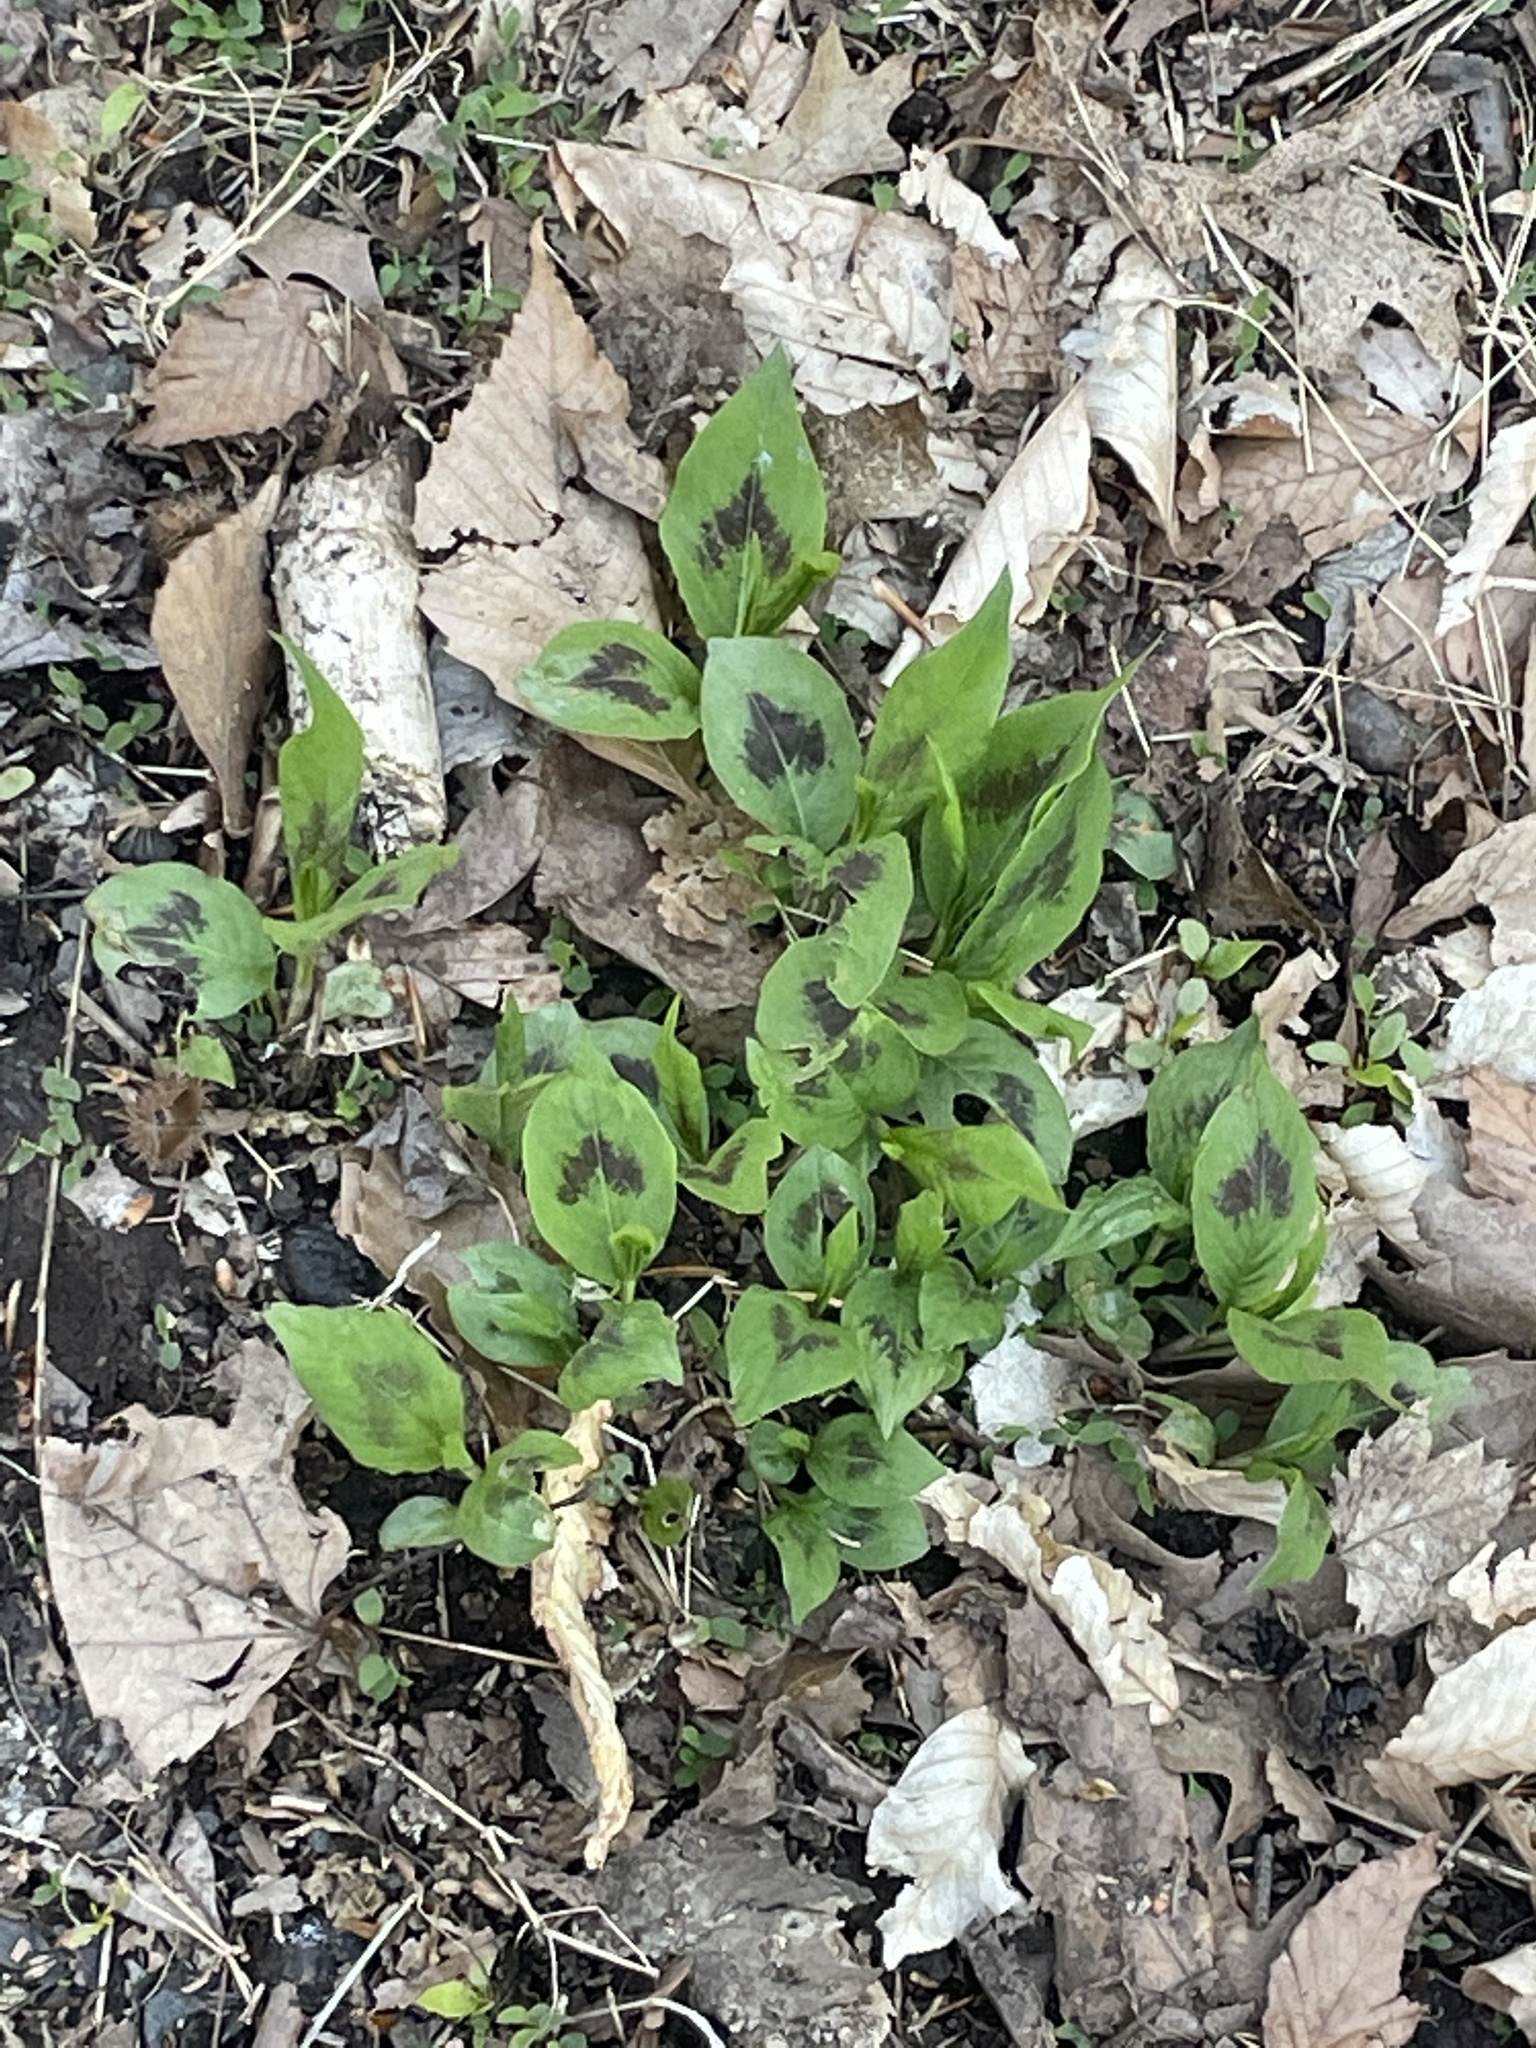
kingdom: Plantae
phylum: Tracheophyta
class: Magnoliopsida
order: Caryophyllales
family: Polygonaceae
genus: Persicaria
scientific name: Persicaria virginiana
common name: Jumpseed
